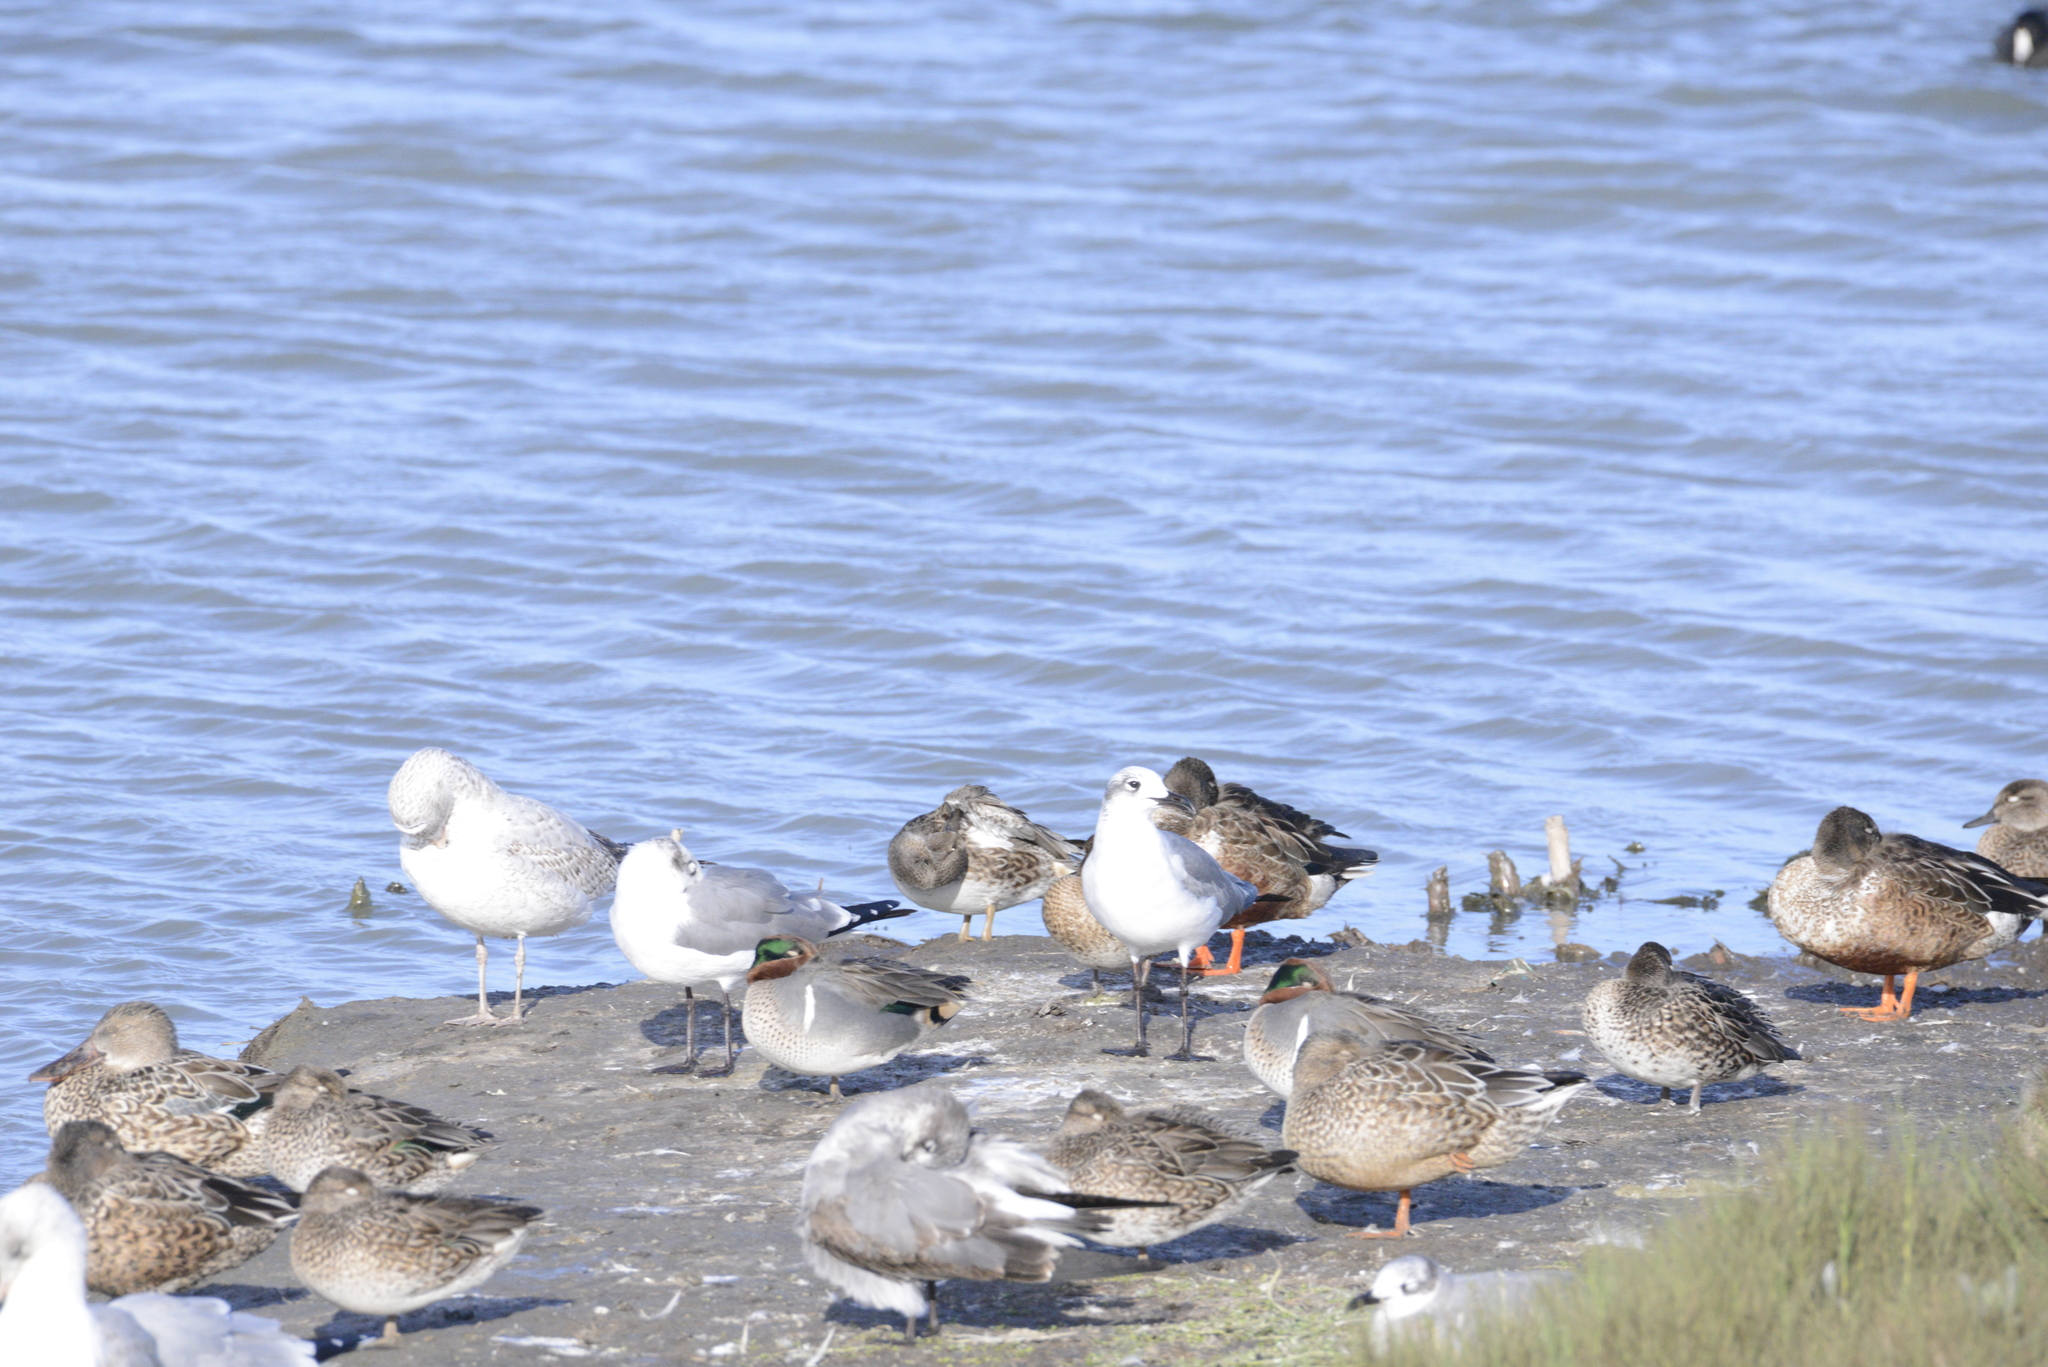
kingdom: Animalia
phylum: Chordata
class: Aves
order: Charadriiformes
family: Laridae
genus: Leucophaeus
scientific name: Leucophaeus atricilla
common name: Laughing gull
